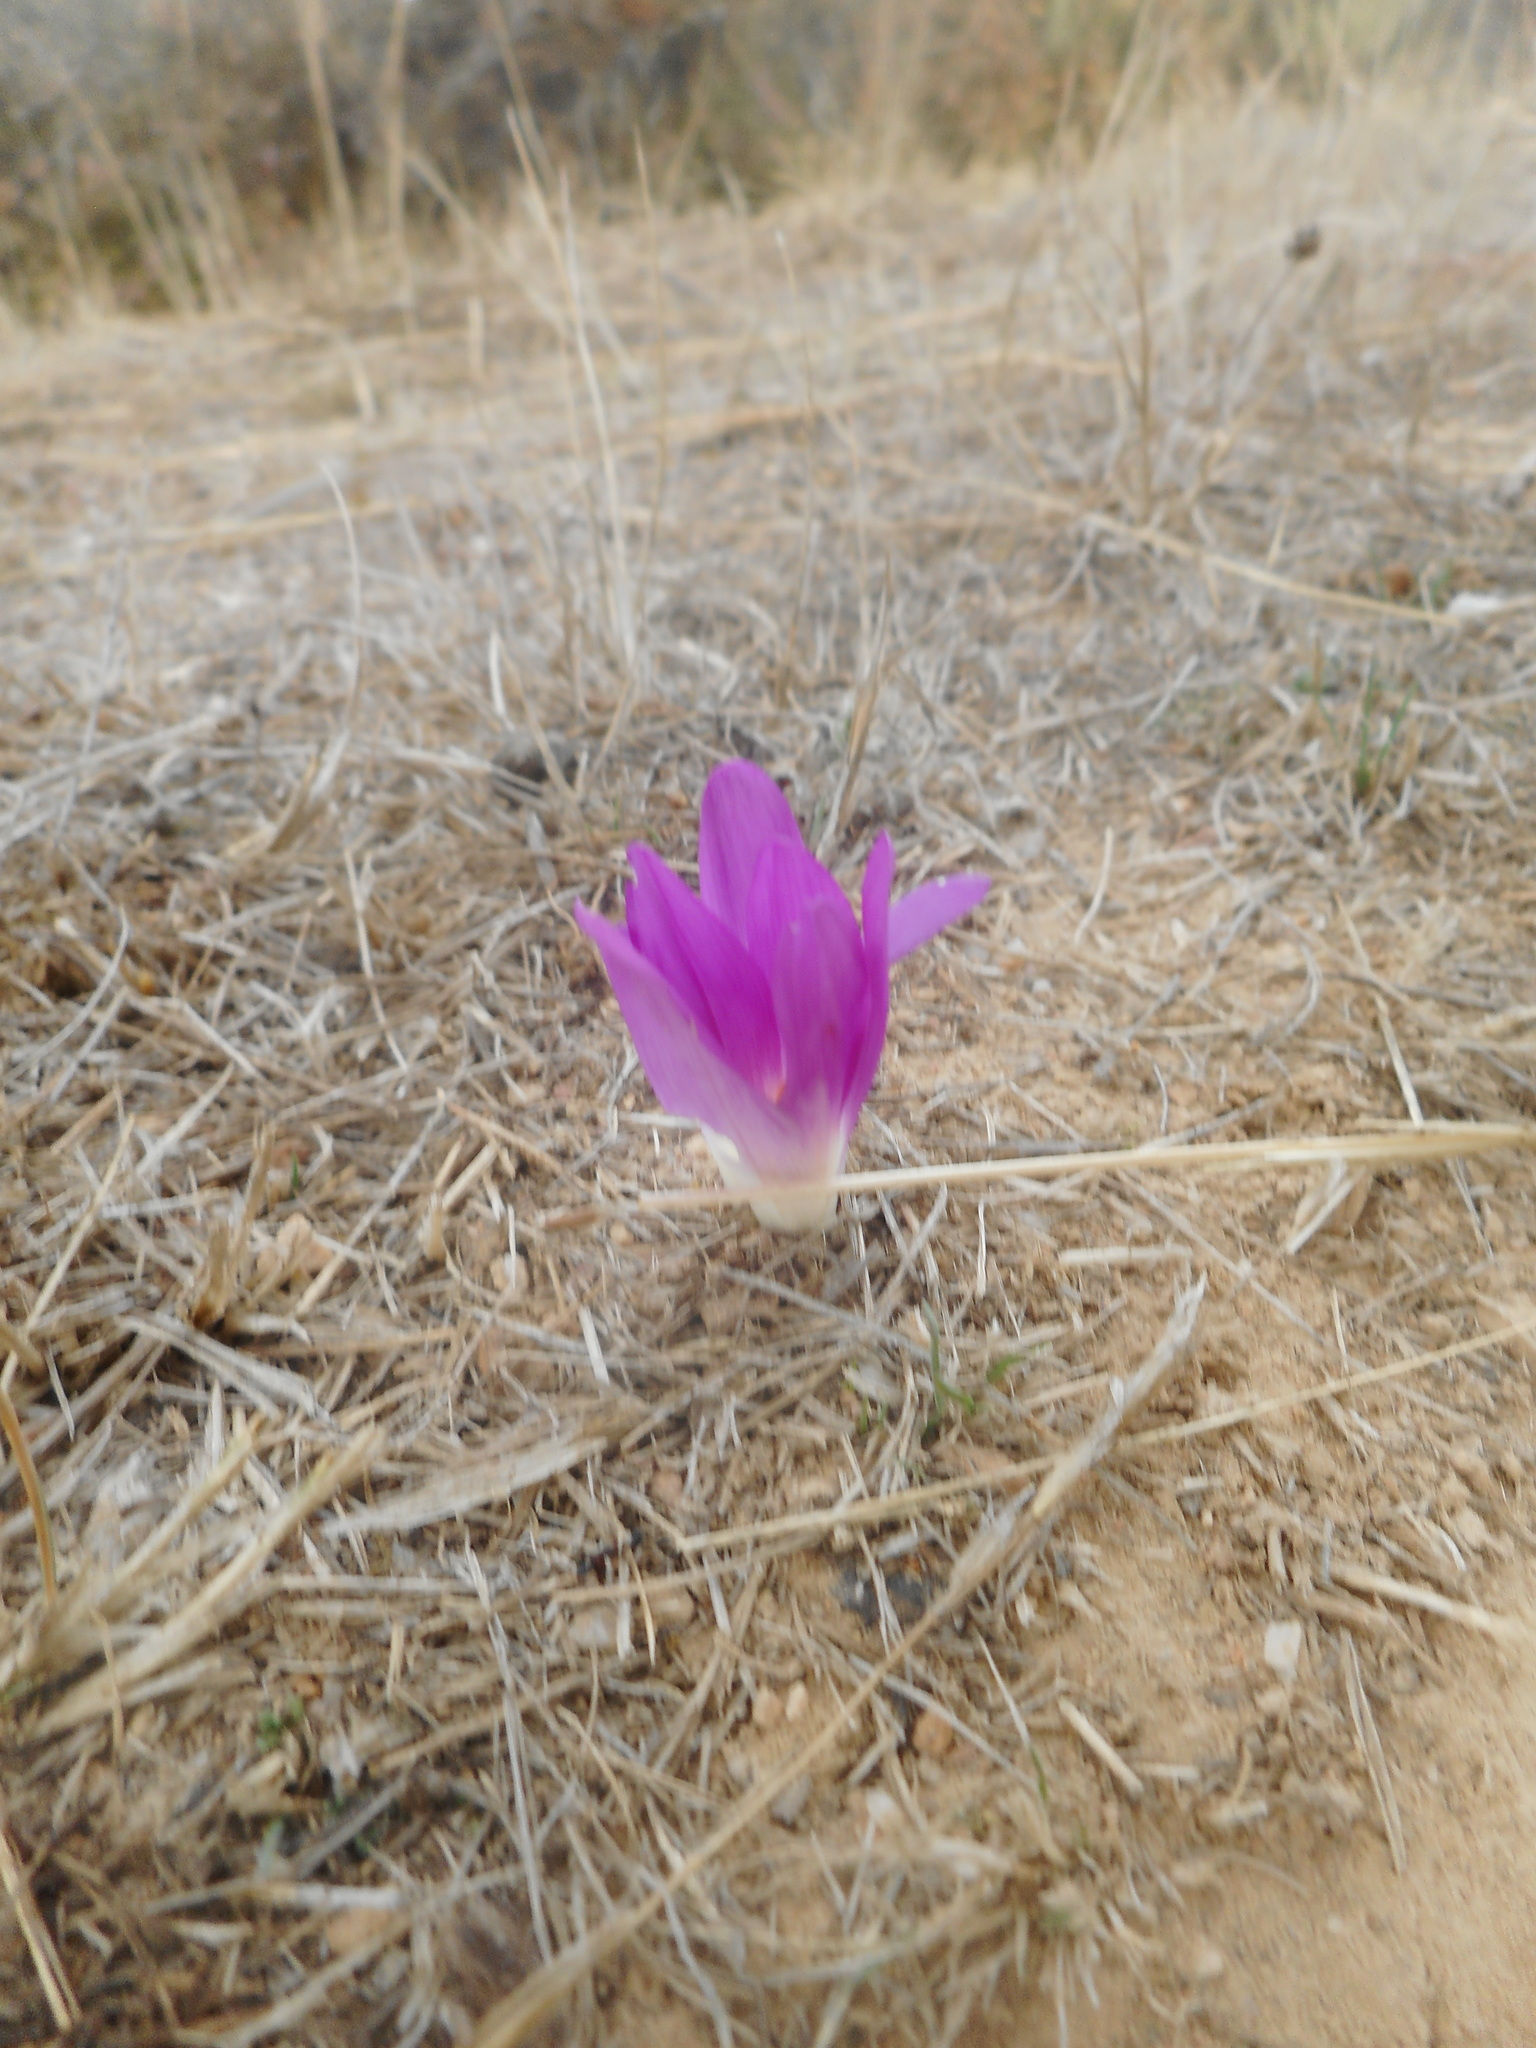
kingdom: Plantae
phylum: Tracheophyta
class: Liliopsida
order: Liliales
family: Colchicaceae
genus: Colchicum
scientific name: Colchicum montanum
